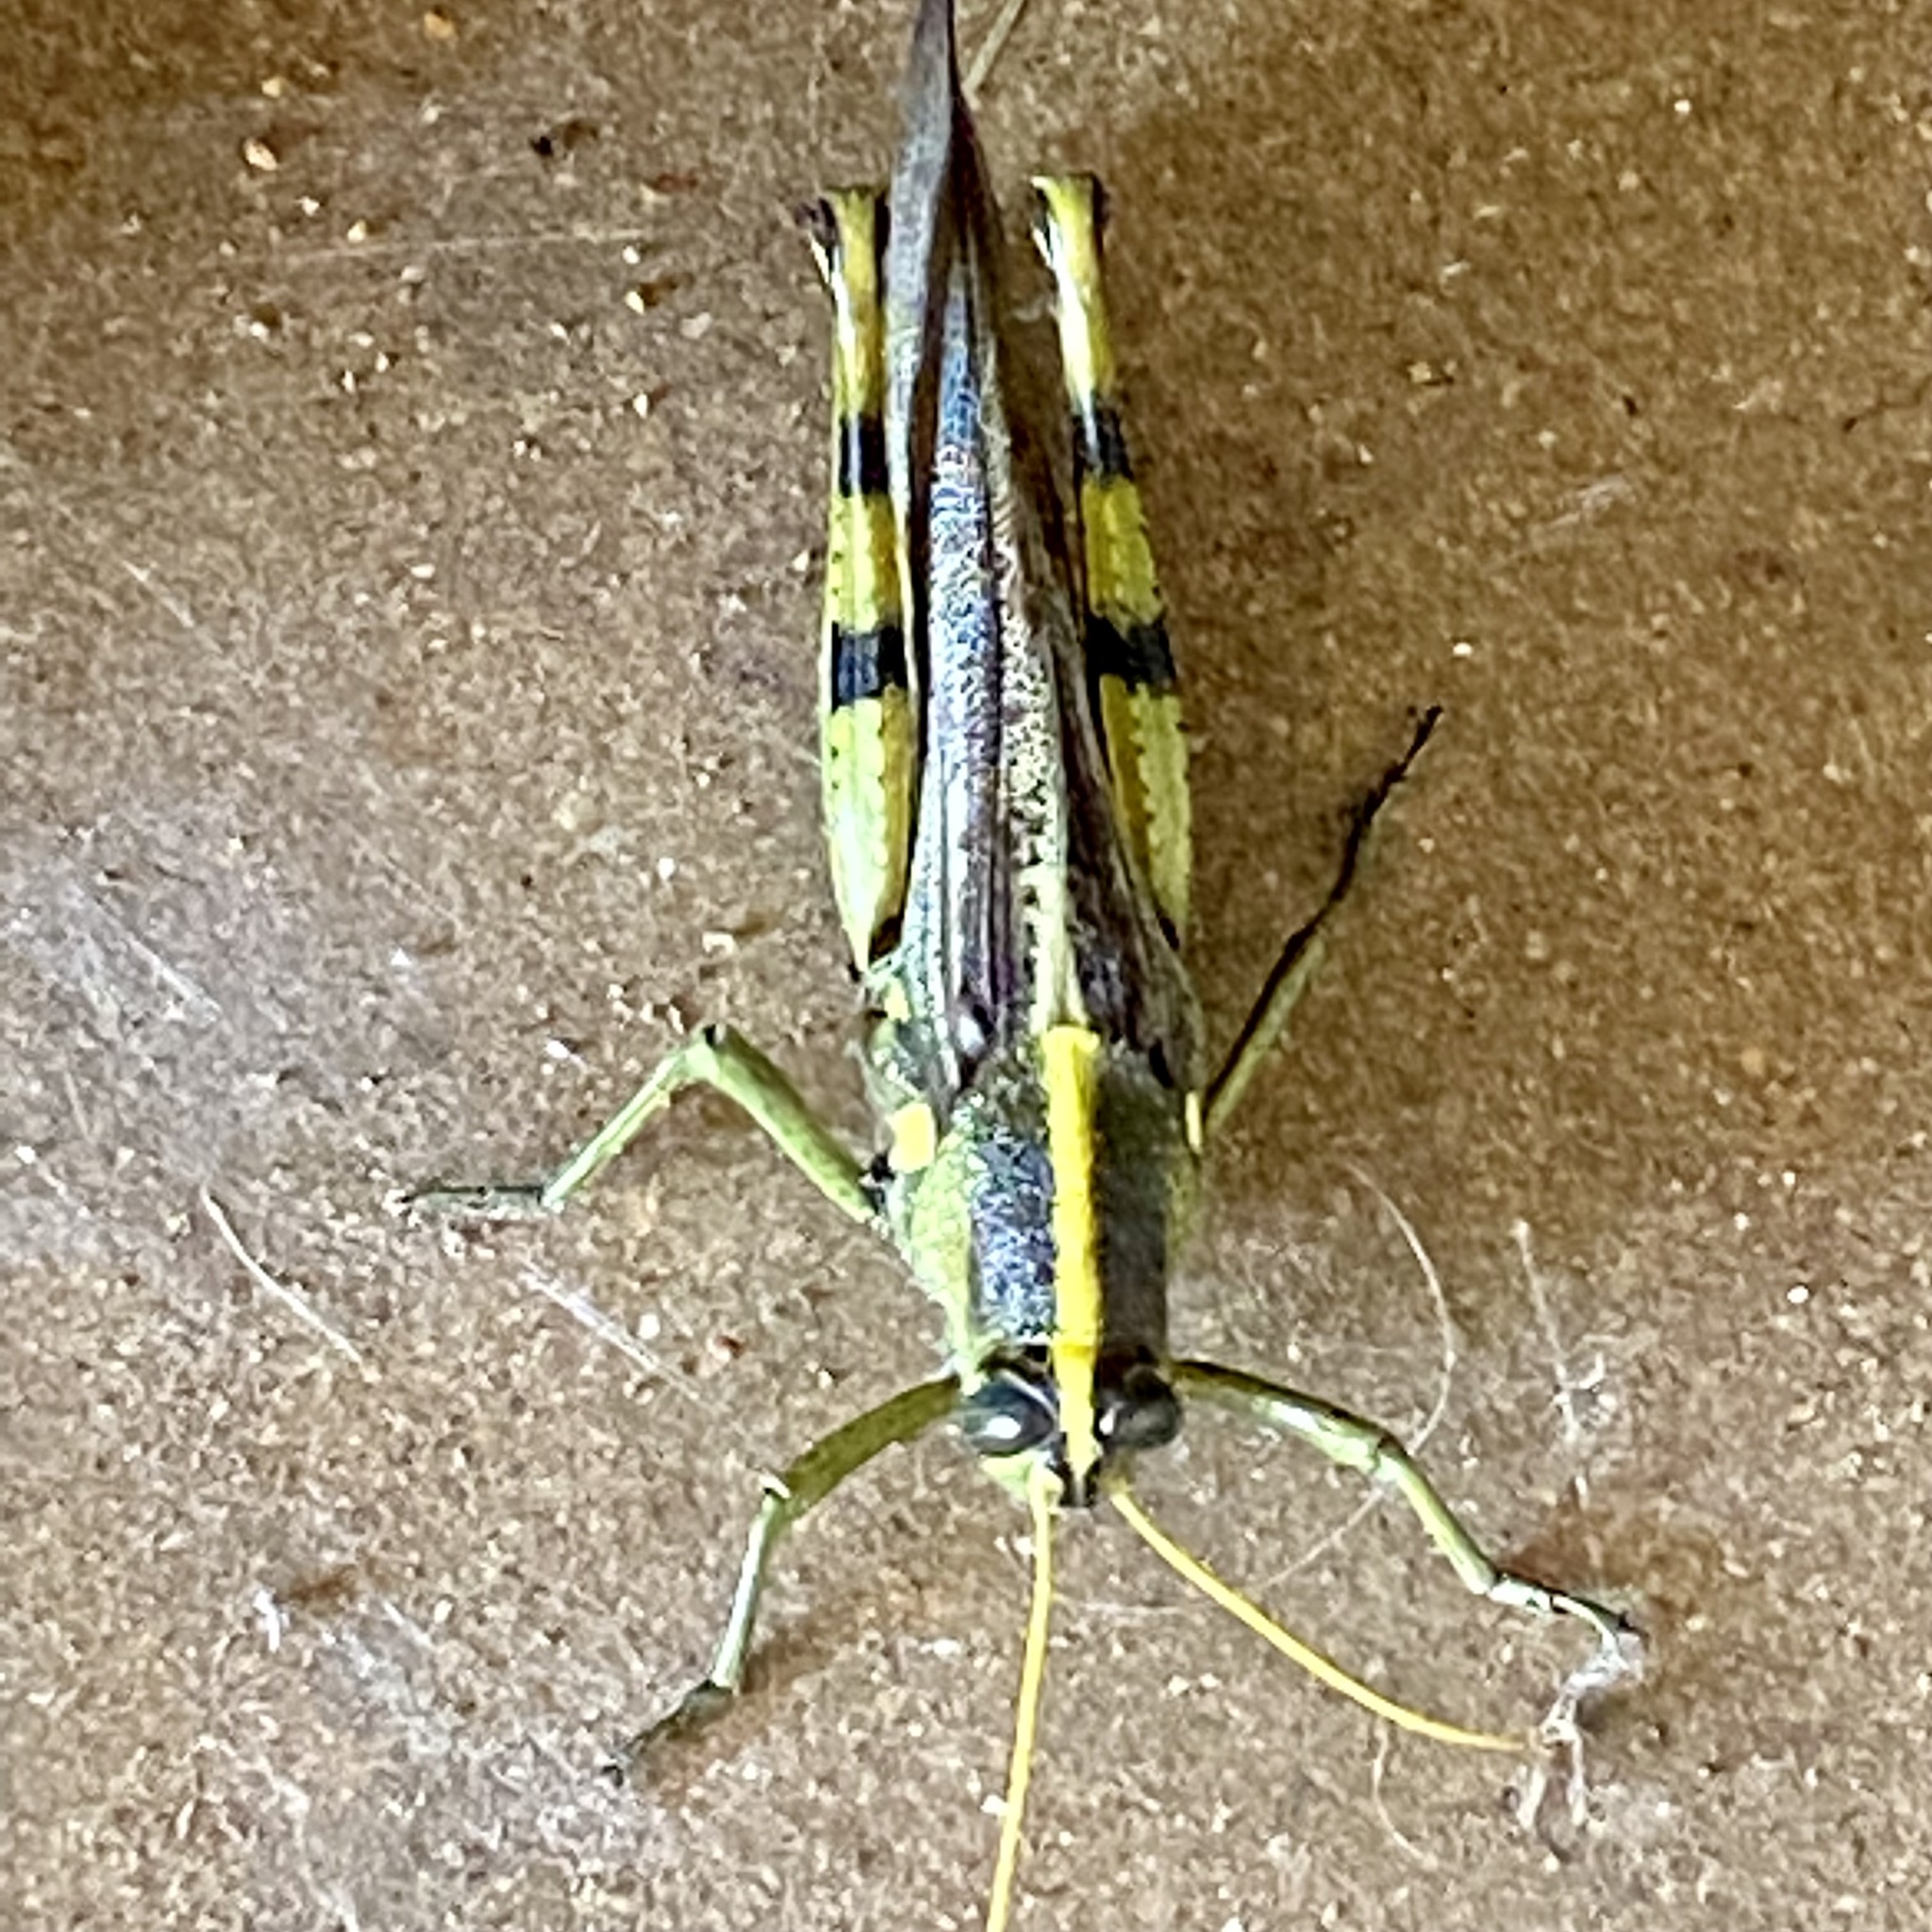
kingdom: Animalia
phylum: Arthropoda
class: Insecta
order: Orthoptera
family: Acrididae
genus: Schistocerca
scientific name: Schistocerca obscura
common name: Obscure bird grasshopper
